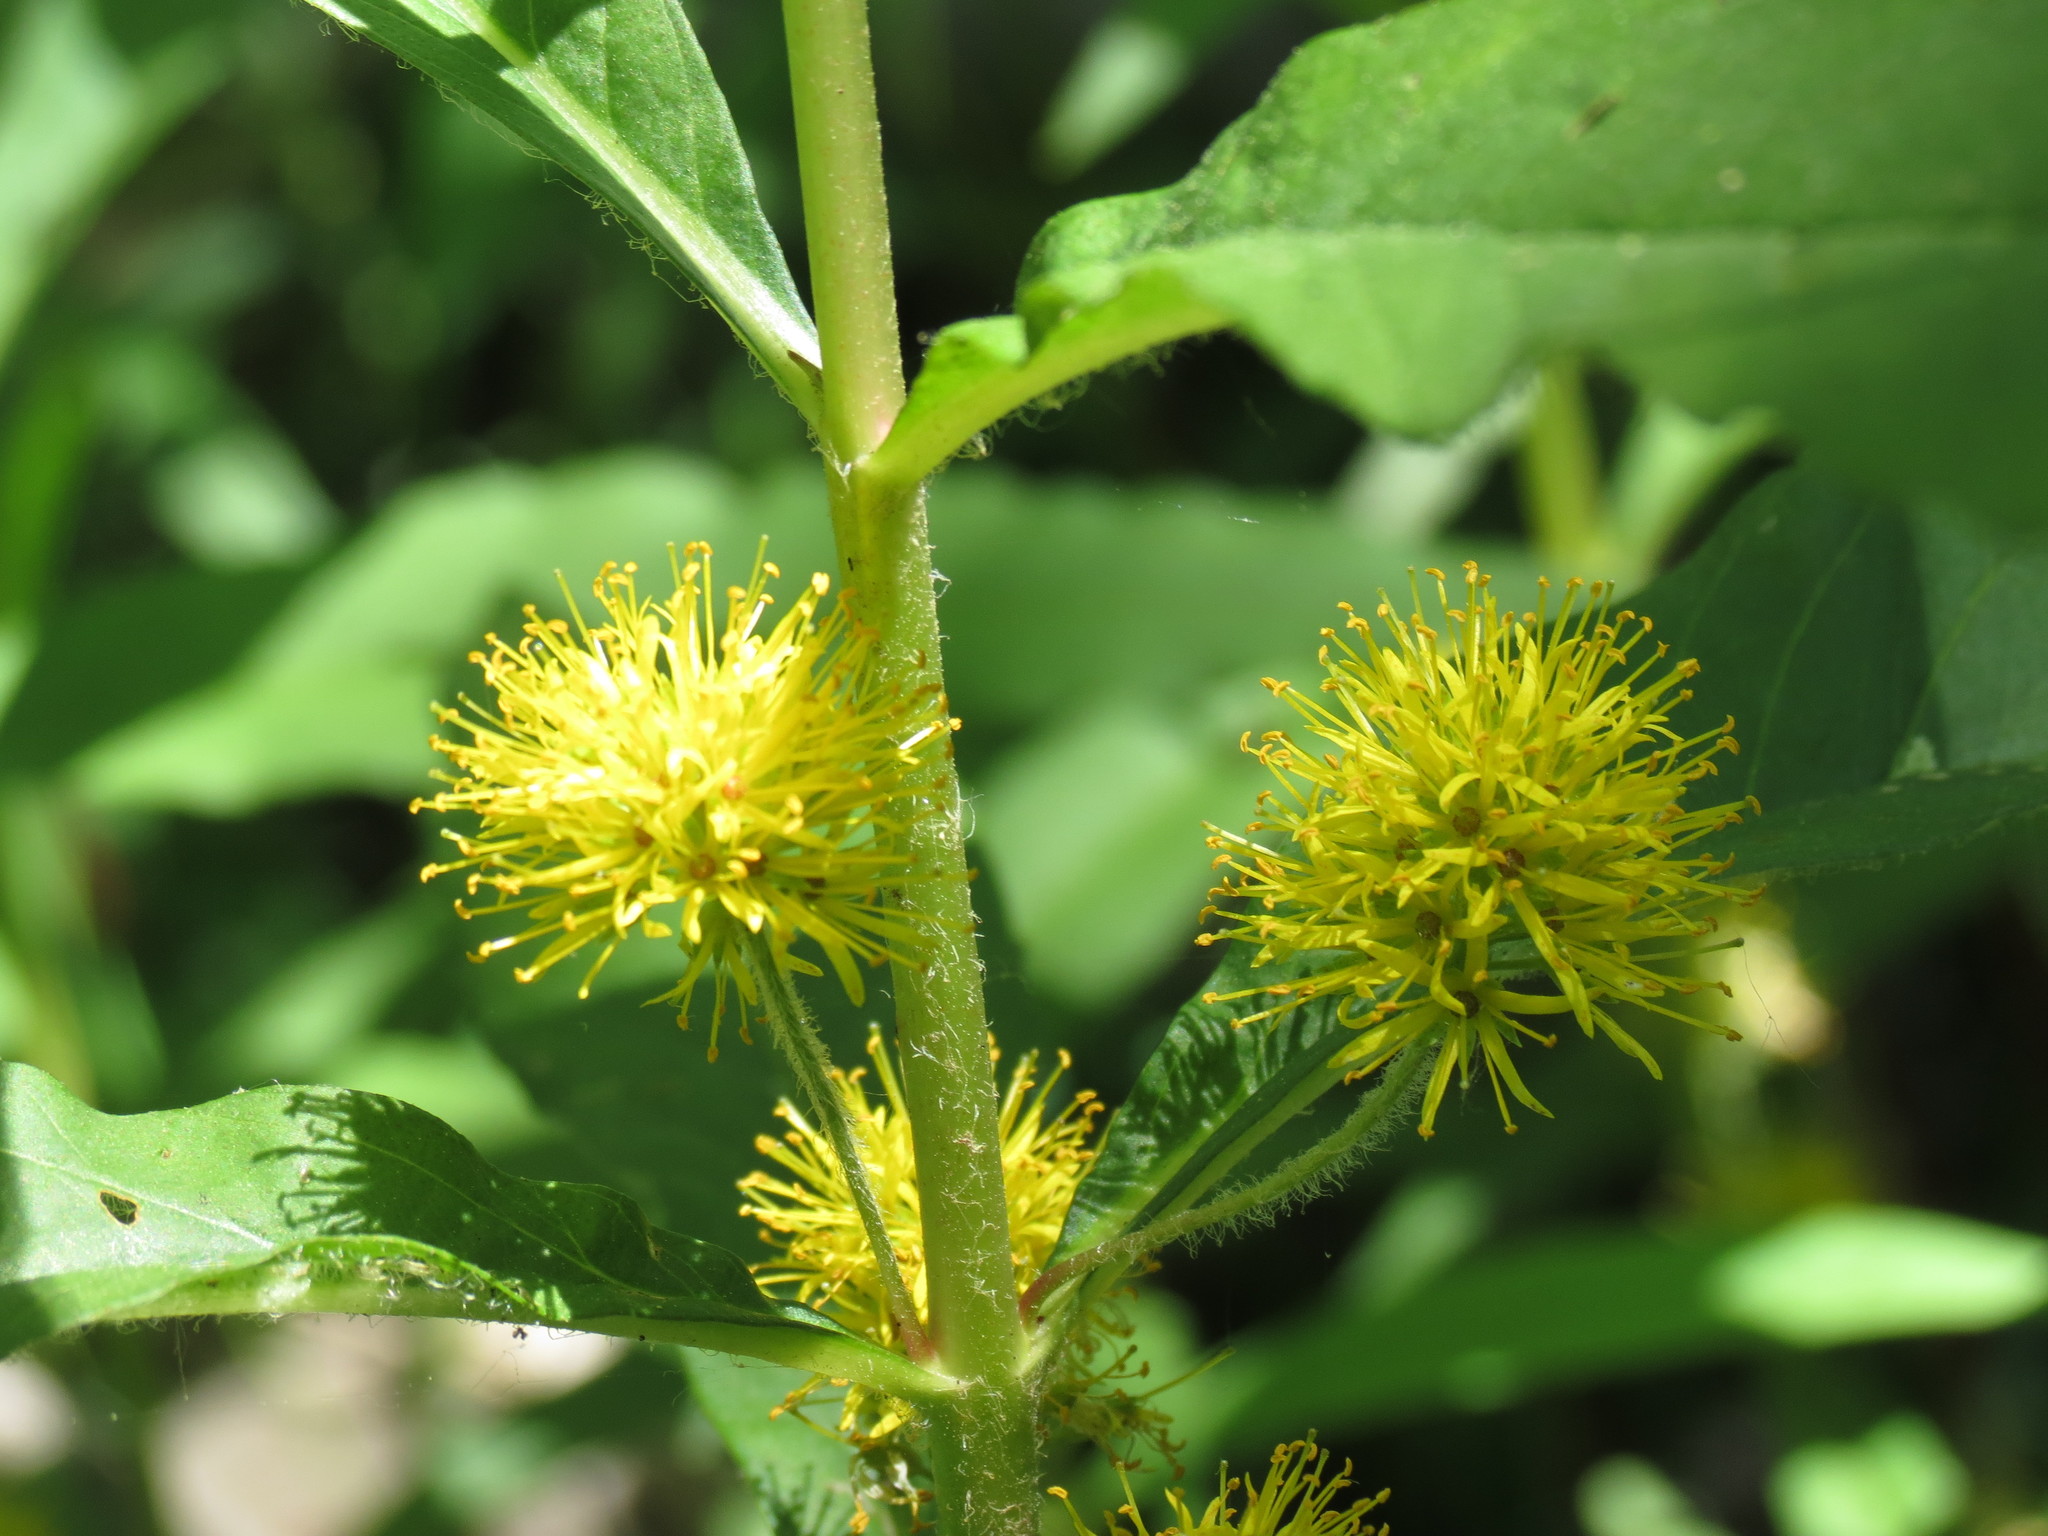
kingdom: Plantae
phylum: Tracheophyta
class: Magnoliopsida
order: Ericales
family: Primulaceae
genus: Lysimachia
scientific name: Lysimachia thyrsiflora
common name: Tufted loosestrife
